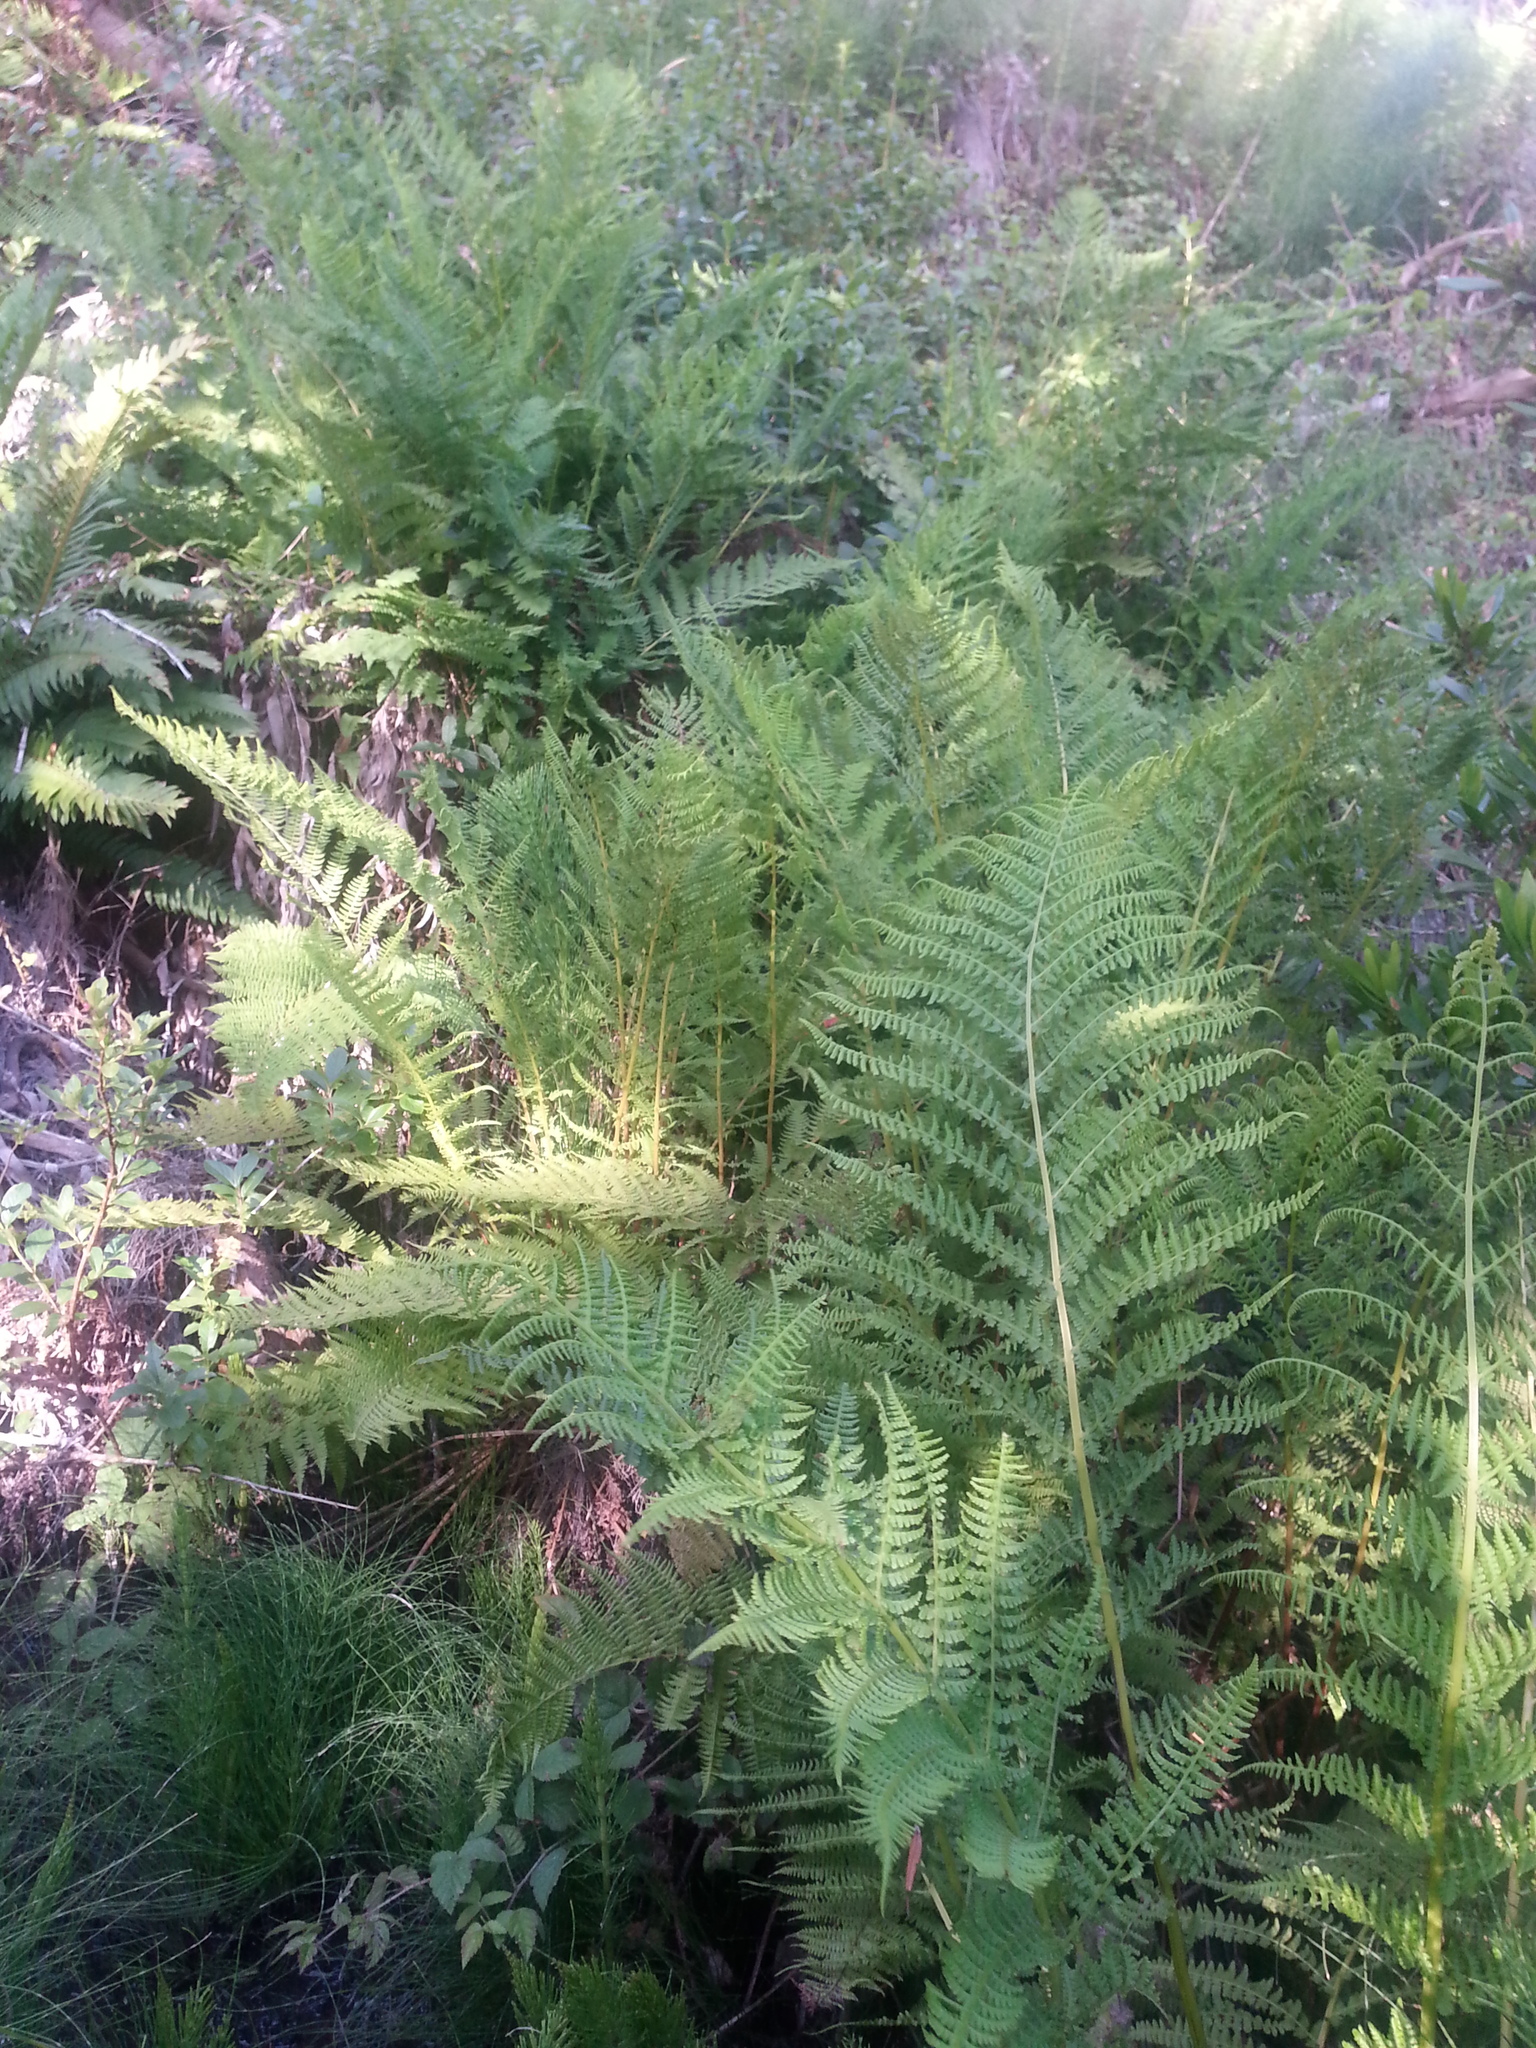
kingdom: Plantae
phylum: Tracheophyta
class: Polypodiopsida
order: Polypodiales
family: Athyriaceae
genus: Athyrium
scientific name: Athyrium filix-femina
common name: Lady fern
